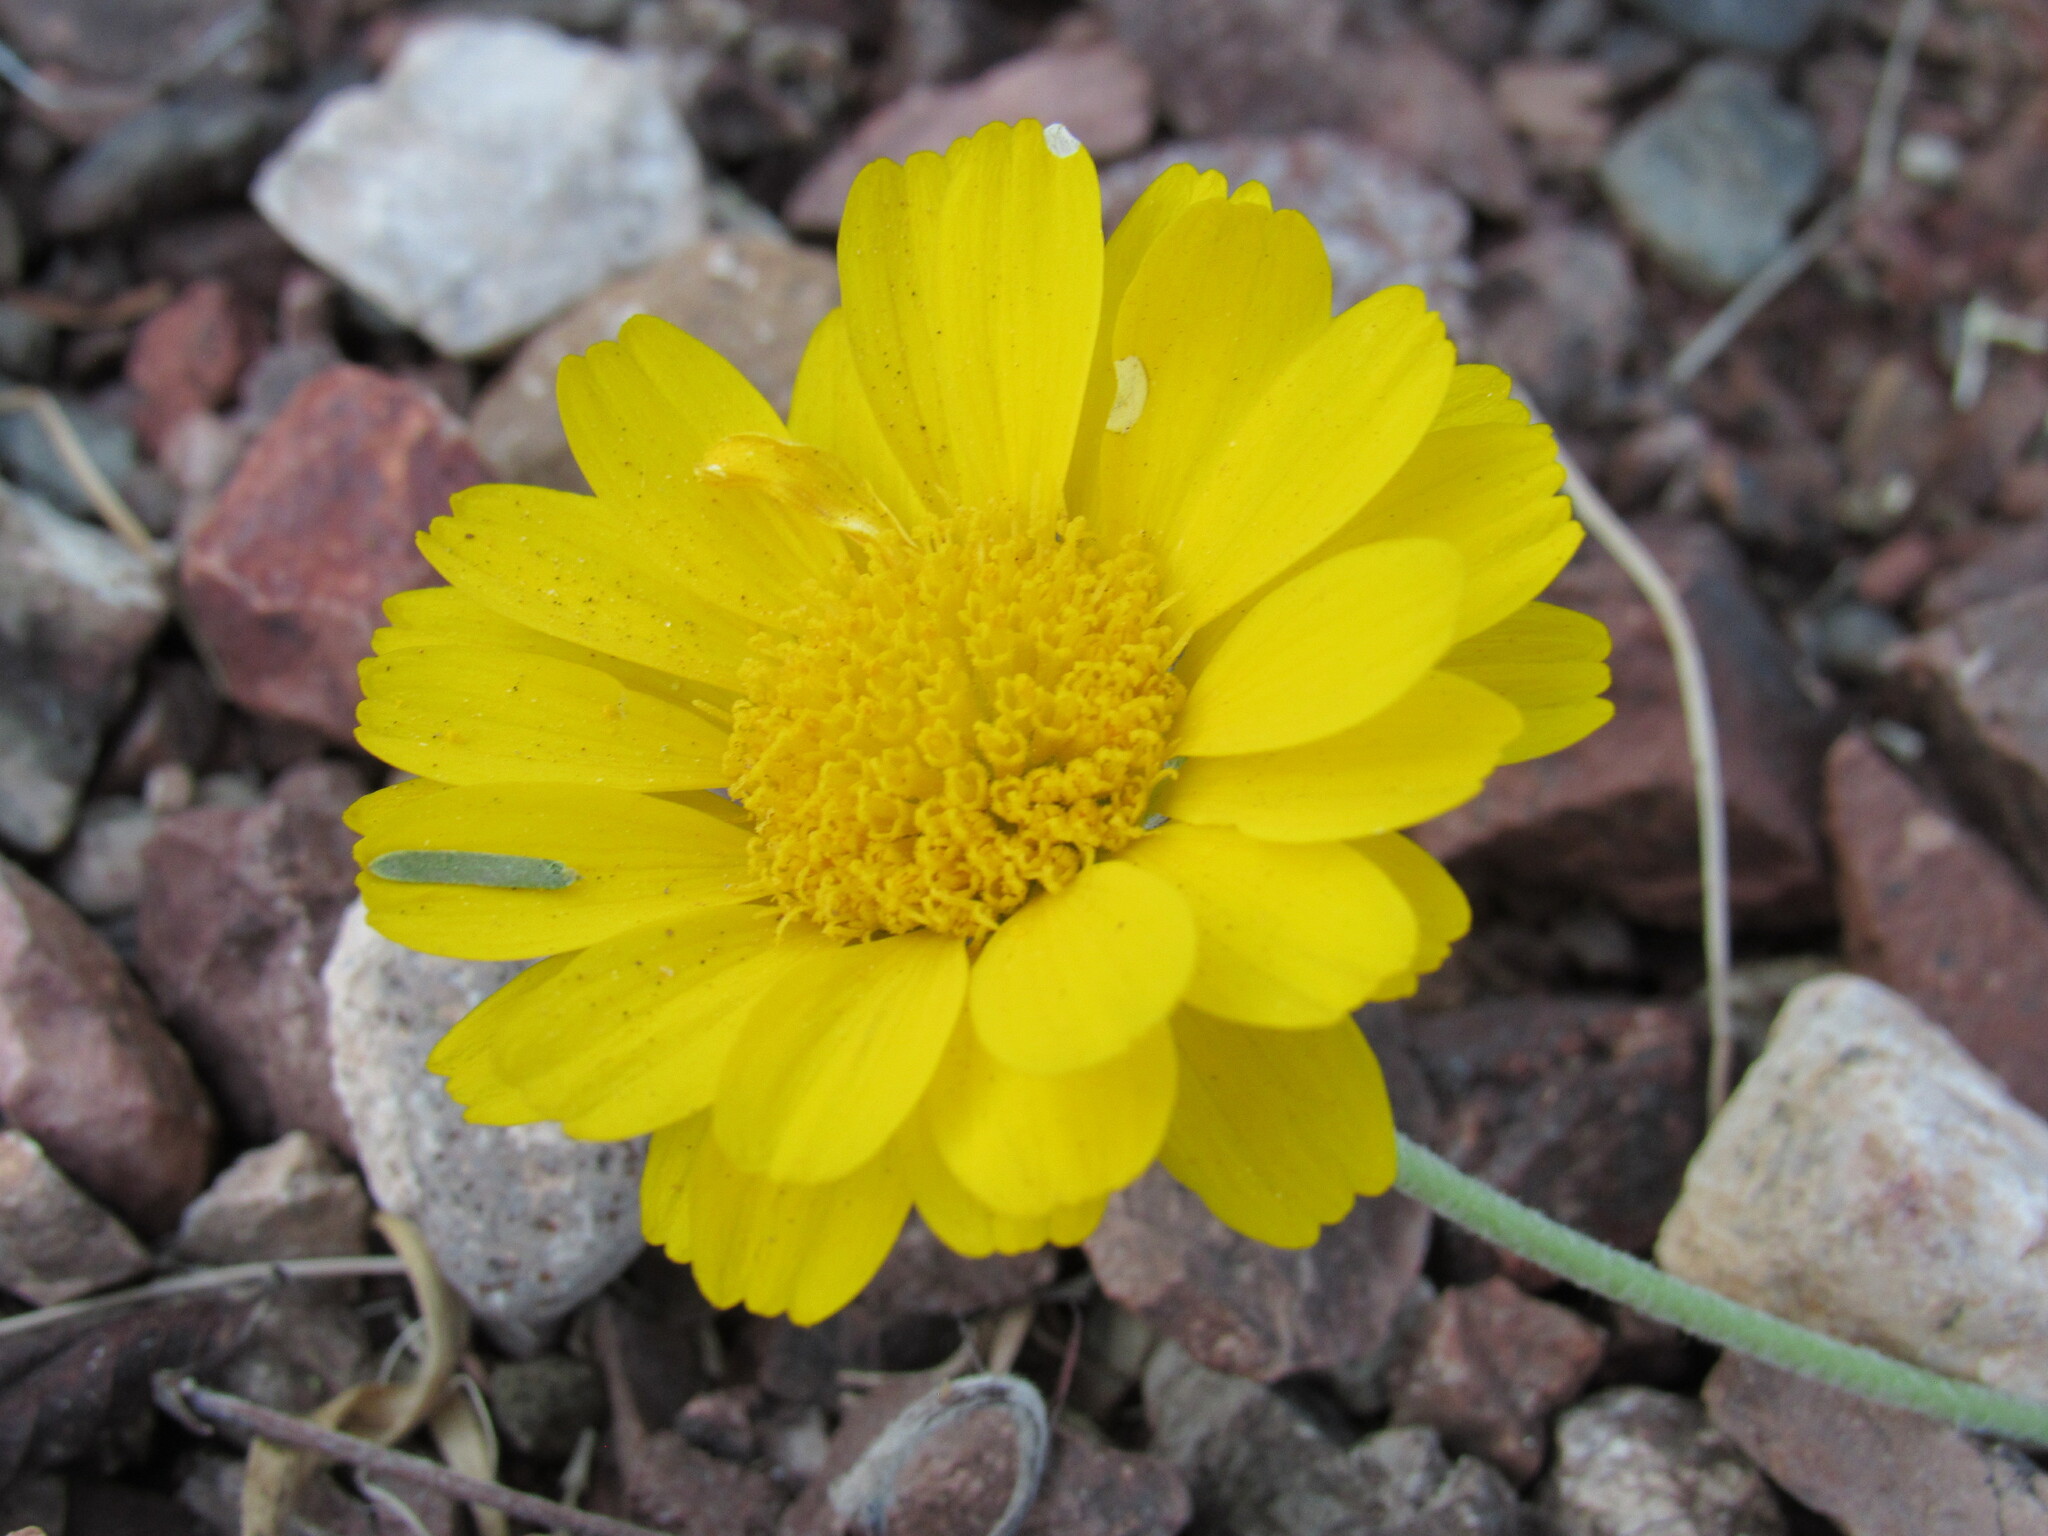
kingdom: Plantae
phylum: Tracheophyta
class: Magnoliopsida
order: Asterales
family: Asteraceae
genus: Baileya
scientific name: Baileya multiradiata
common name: Desert-marigold
